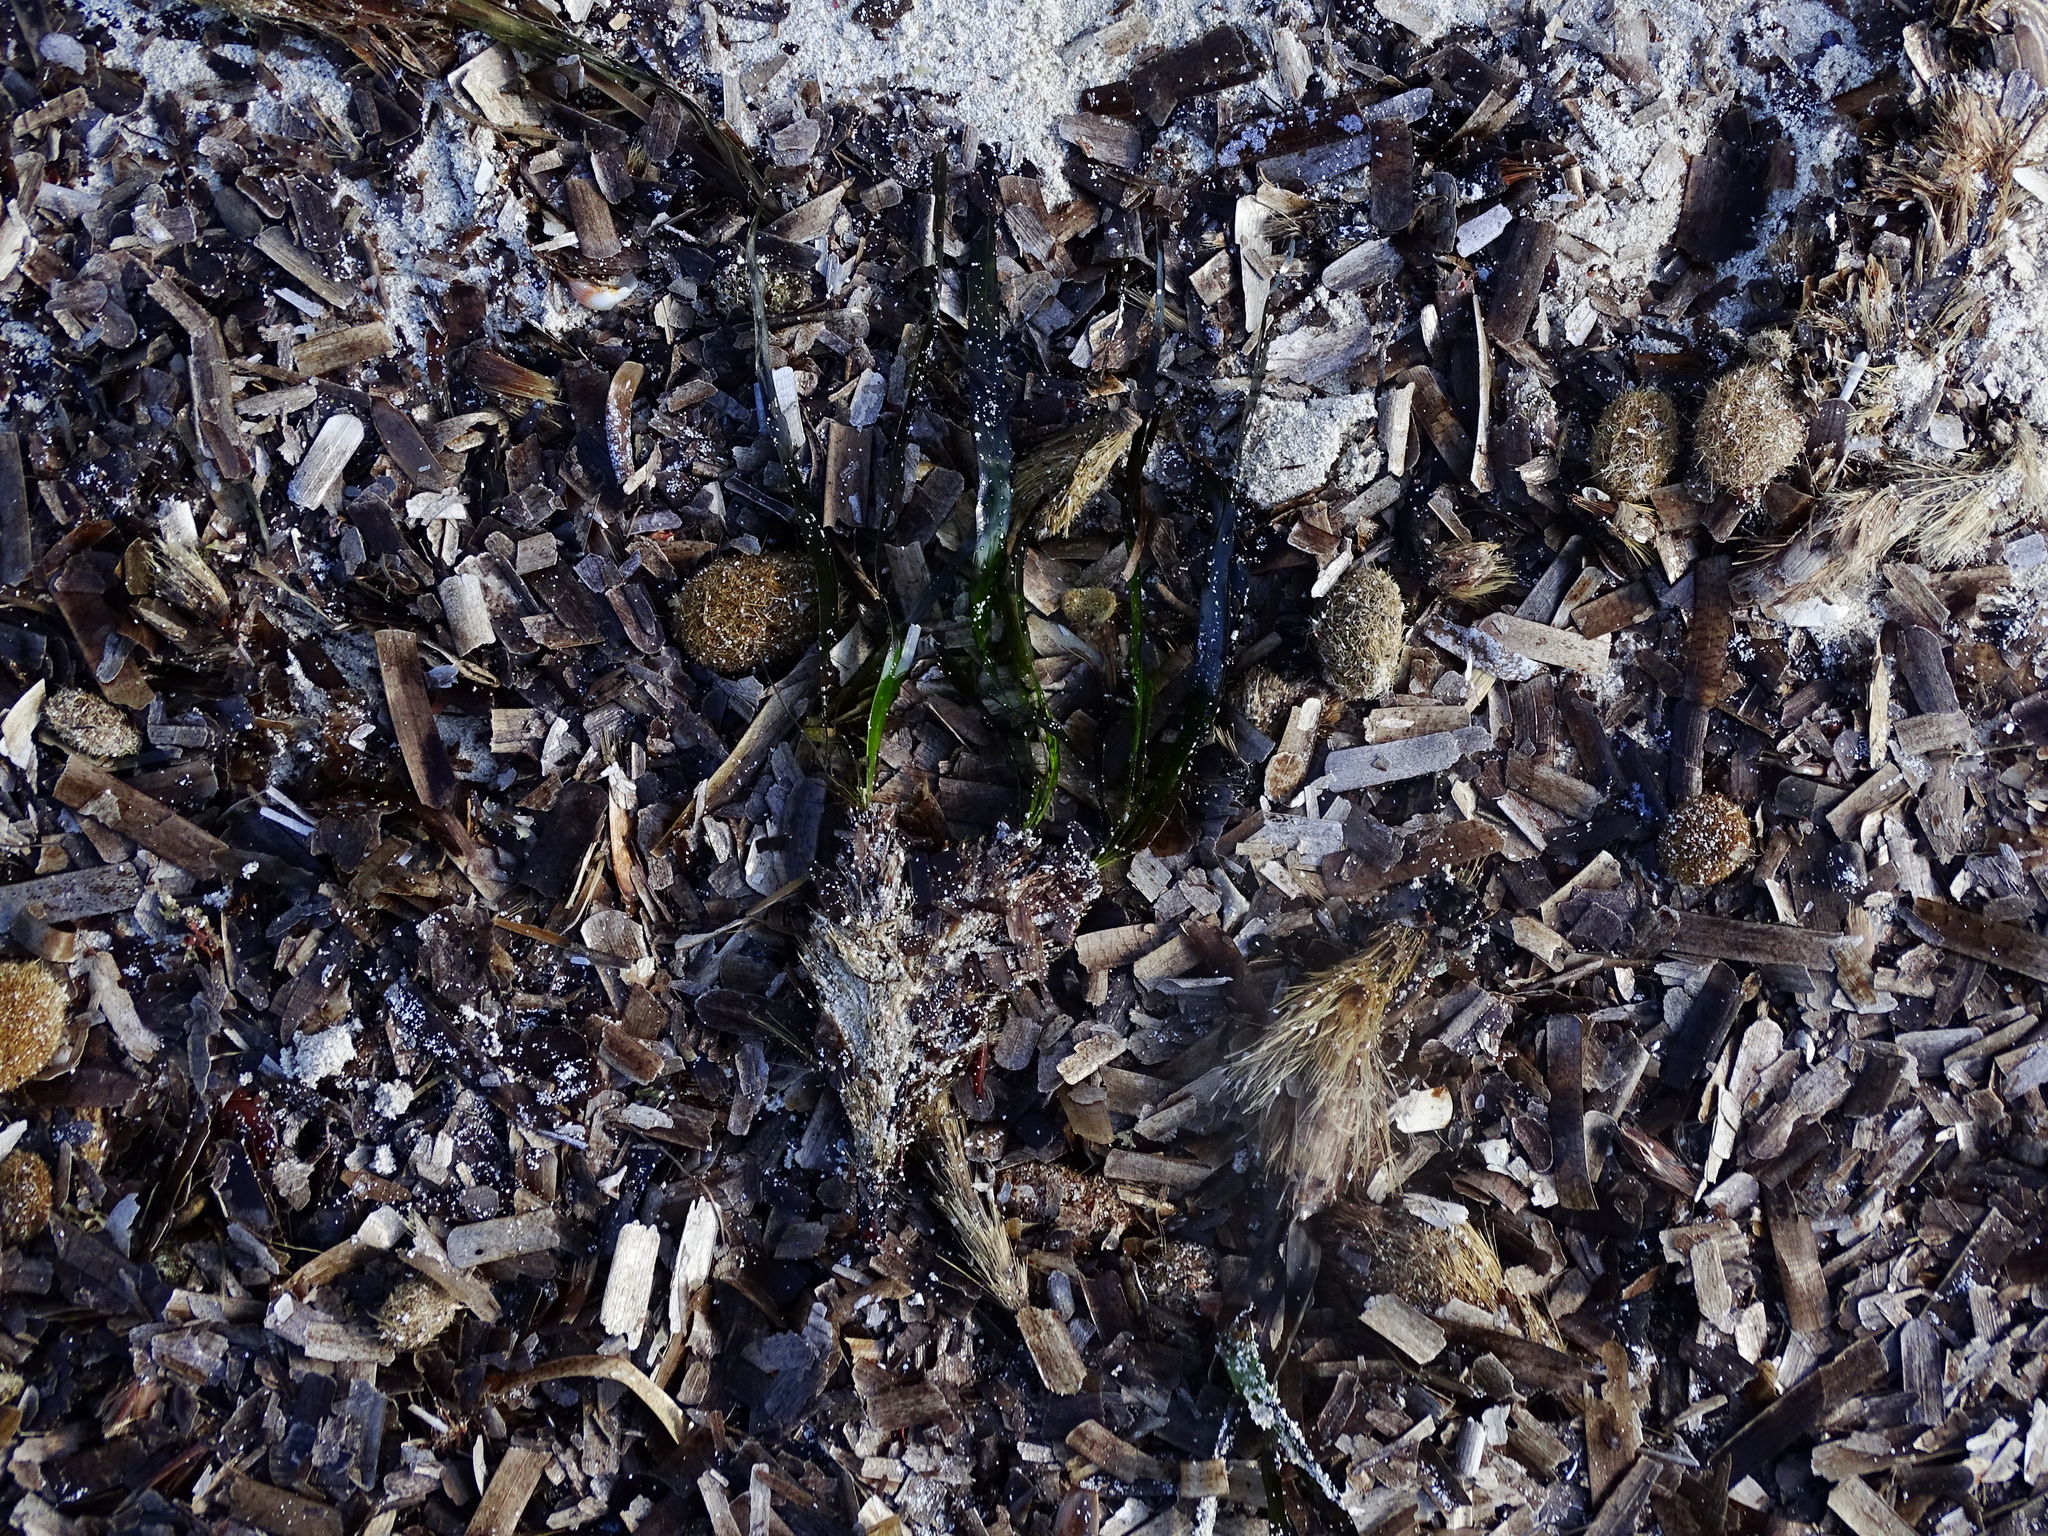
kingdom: Plantae
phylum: Tracheophyta
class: Liliopsida
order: Alismatales
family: Posidoniaceae
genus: Posidonia
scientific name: Posidonia oceanica
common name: Mediterranean tapeweed
